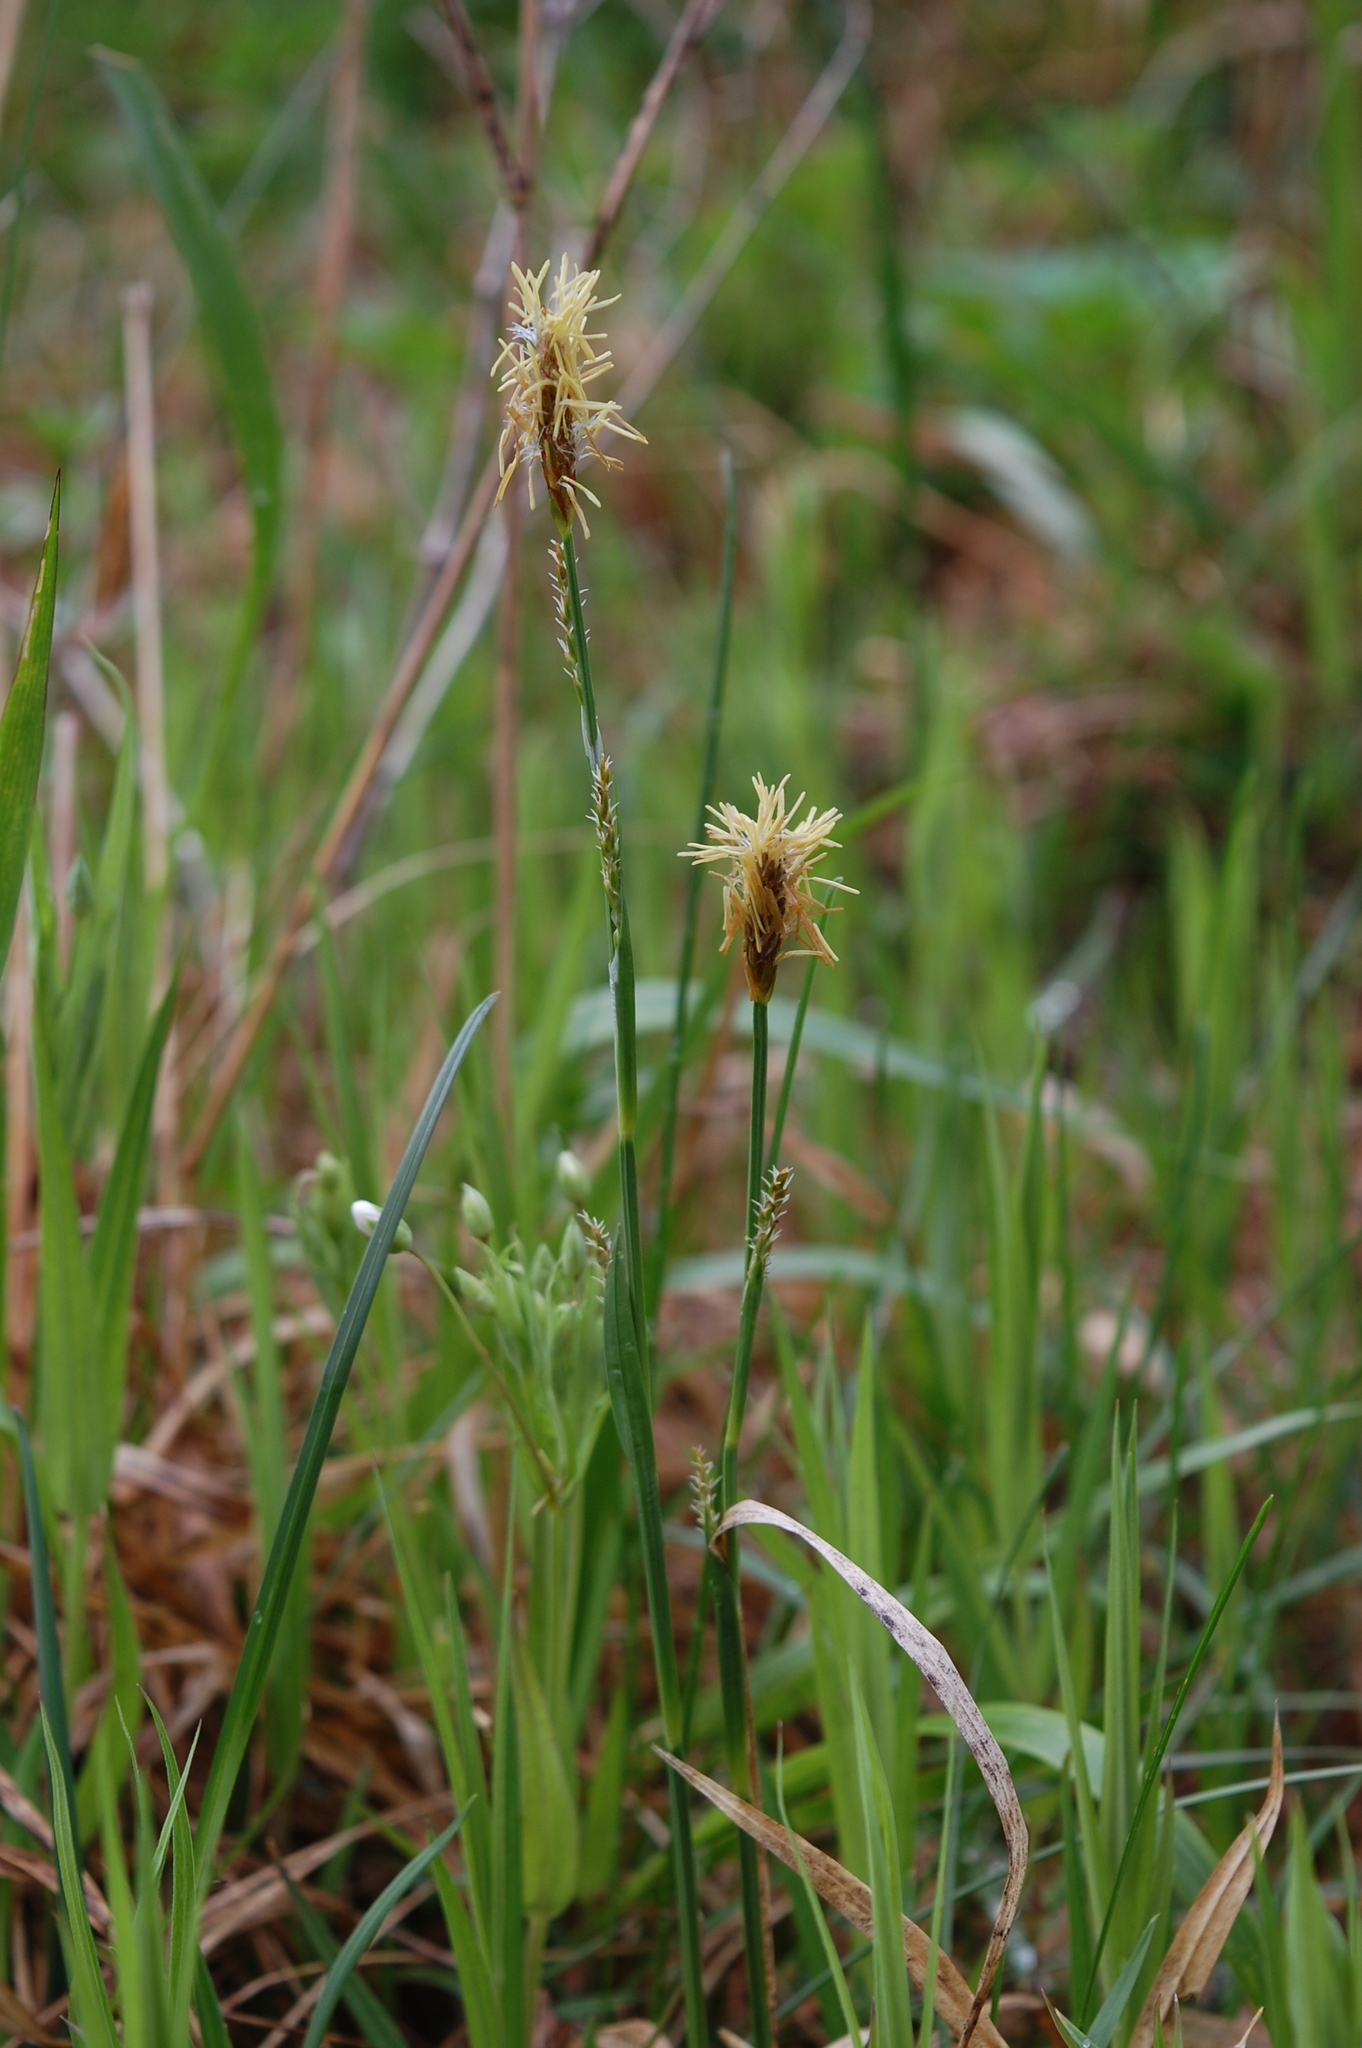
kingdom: Plantae
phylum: Tracheophyta
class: Liliopsida
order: Poales
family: Cyperaceae
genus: Carex
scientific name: Carex pilosa
